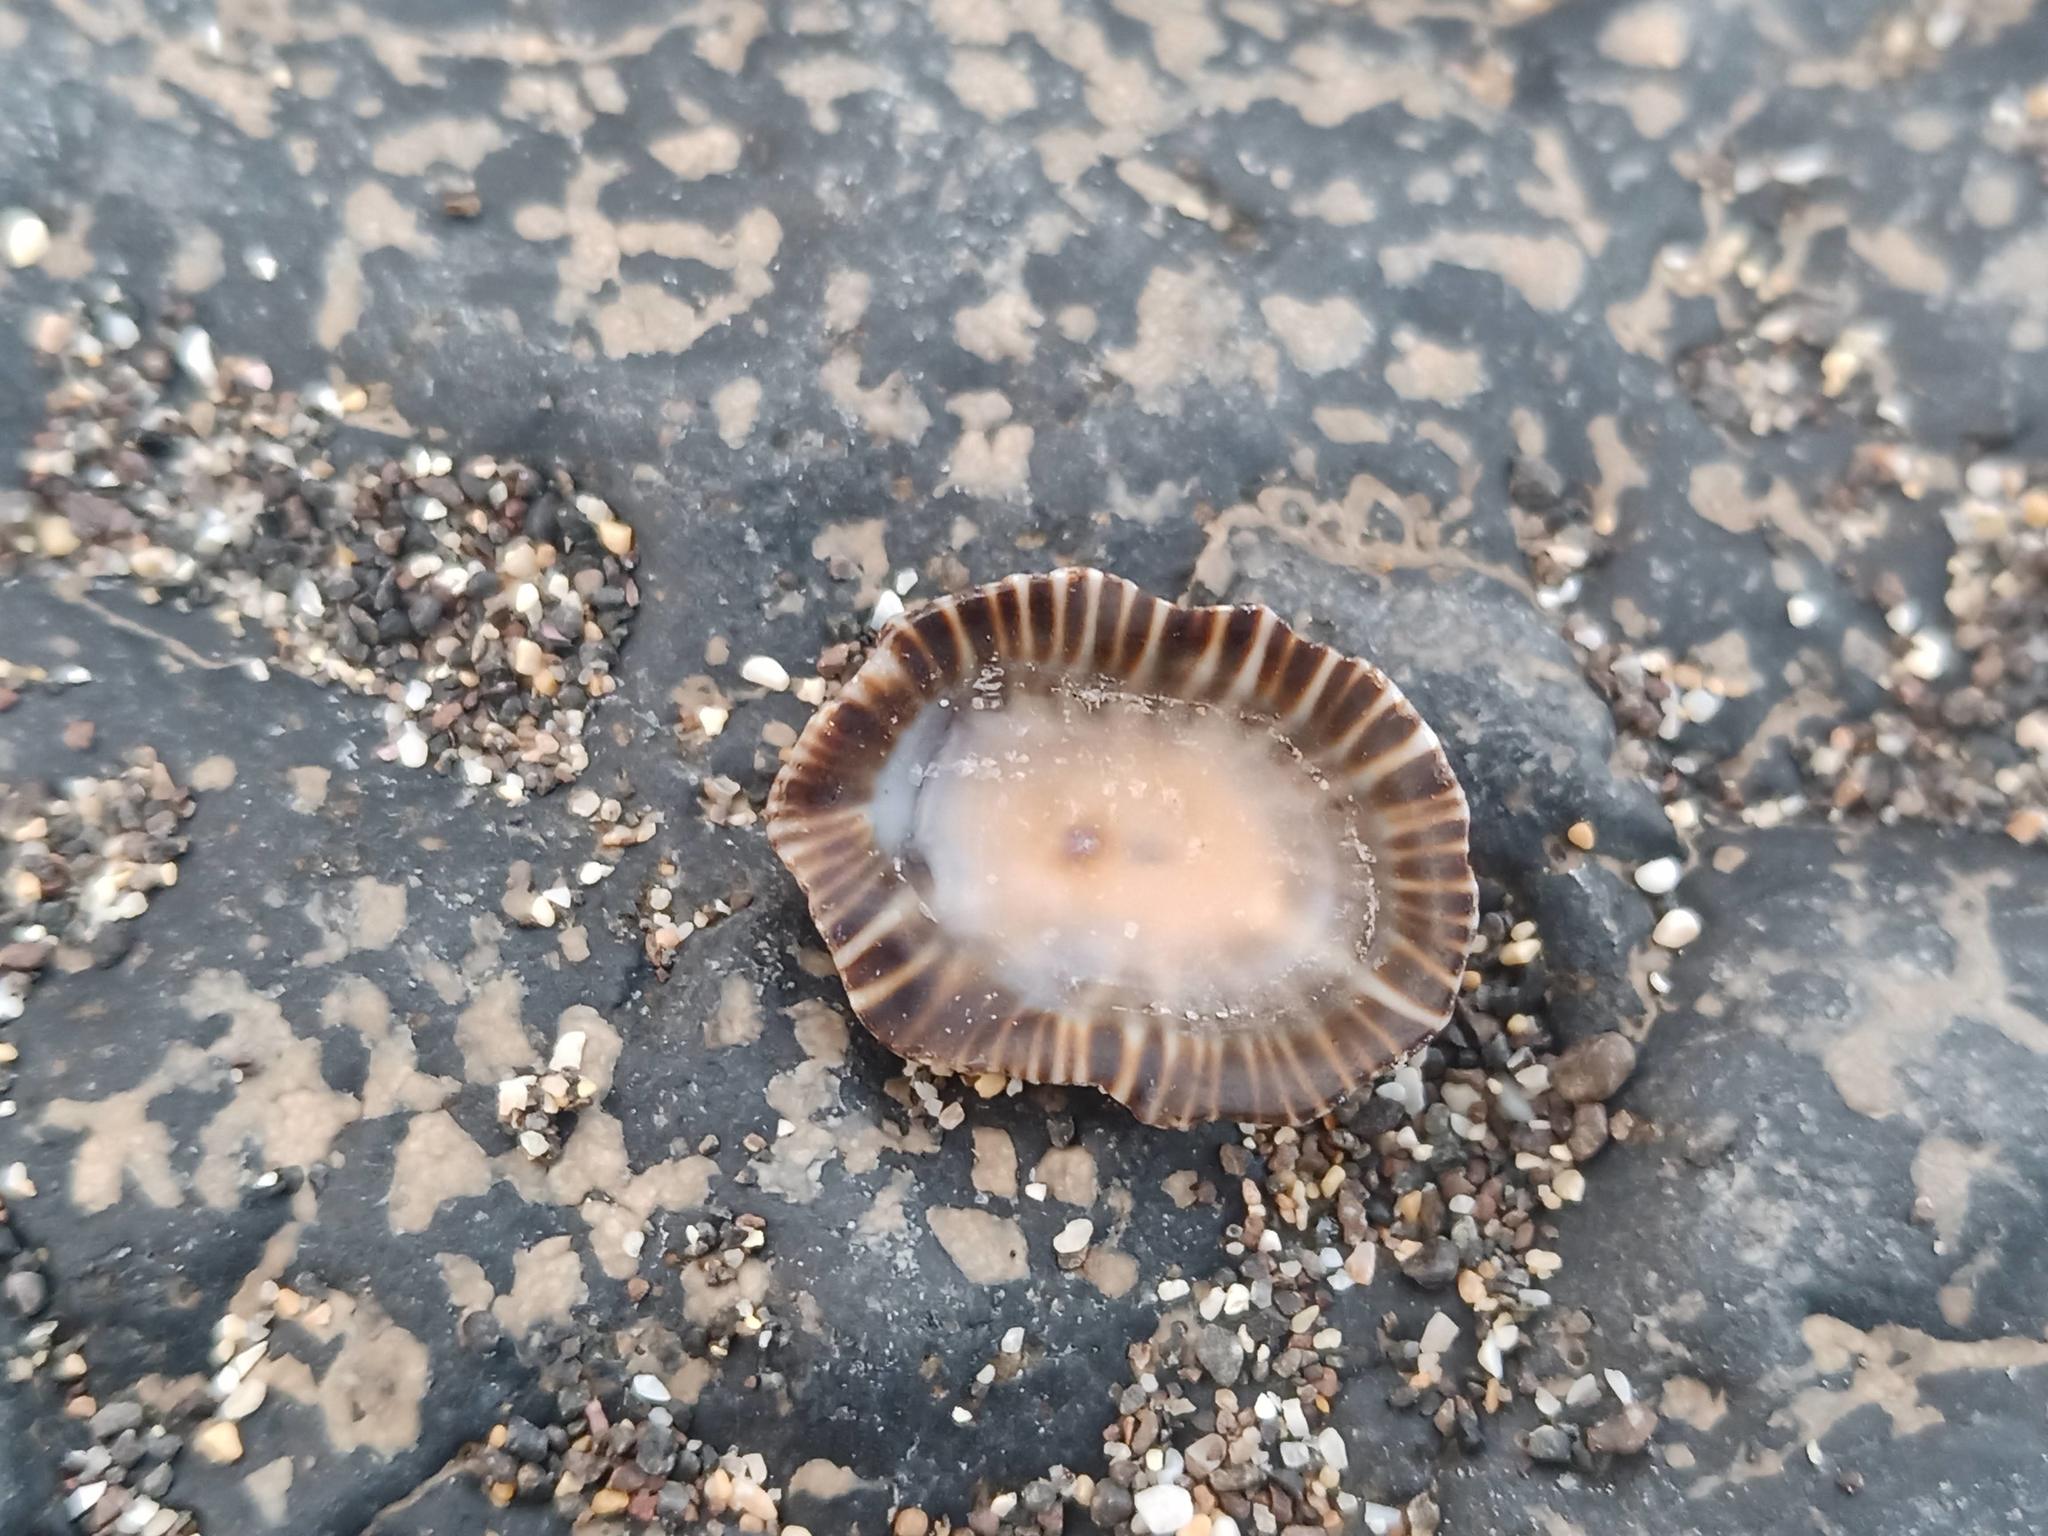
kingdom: Animalia
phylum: Mollusca
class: Gastropoda
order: Siphonariida
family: Siphonariidae
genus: Siphonaria
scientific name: Siphonaria pectinata
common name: Striped false limpet
